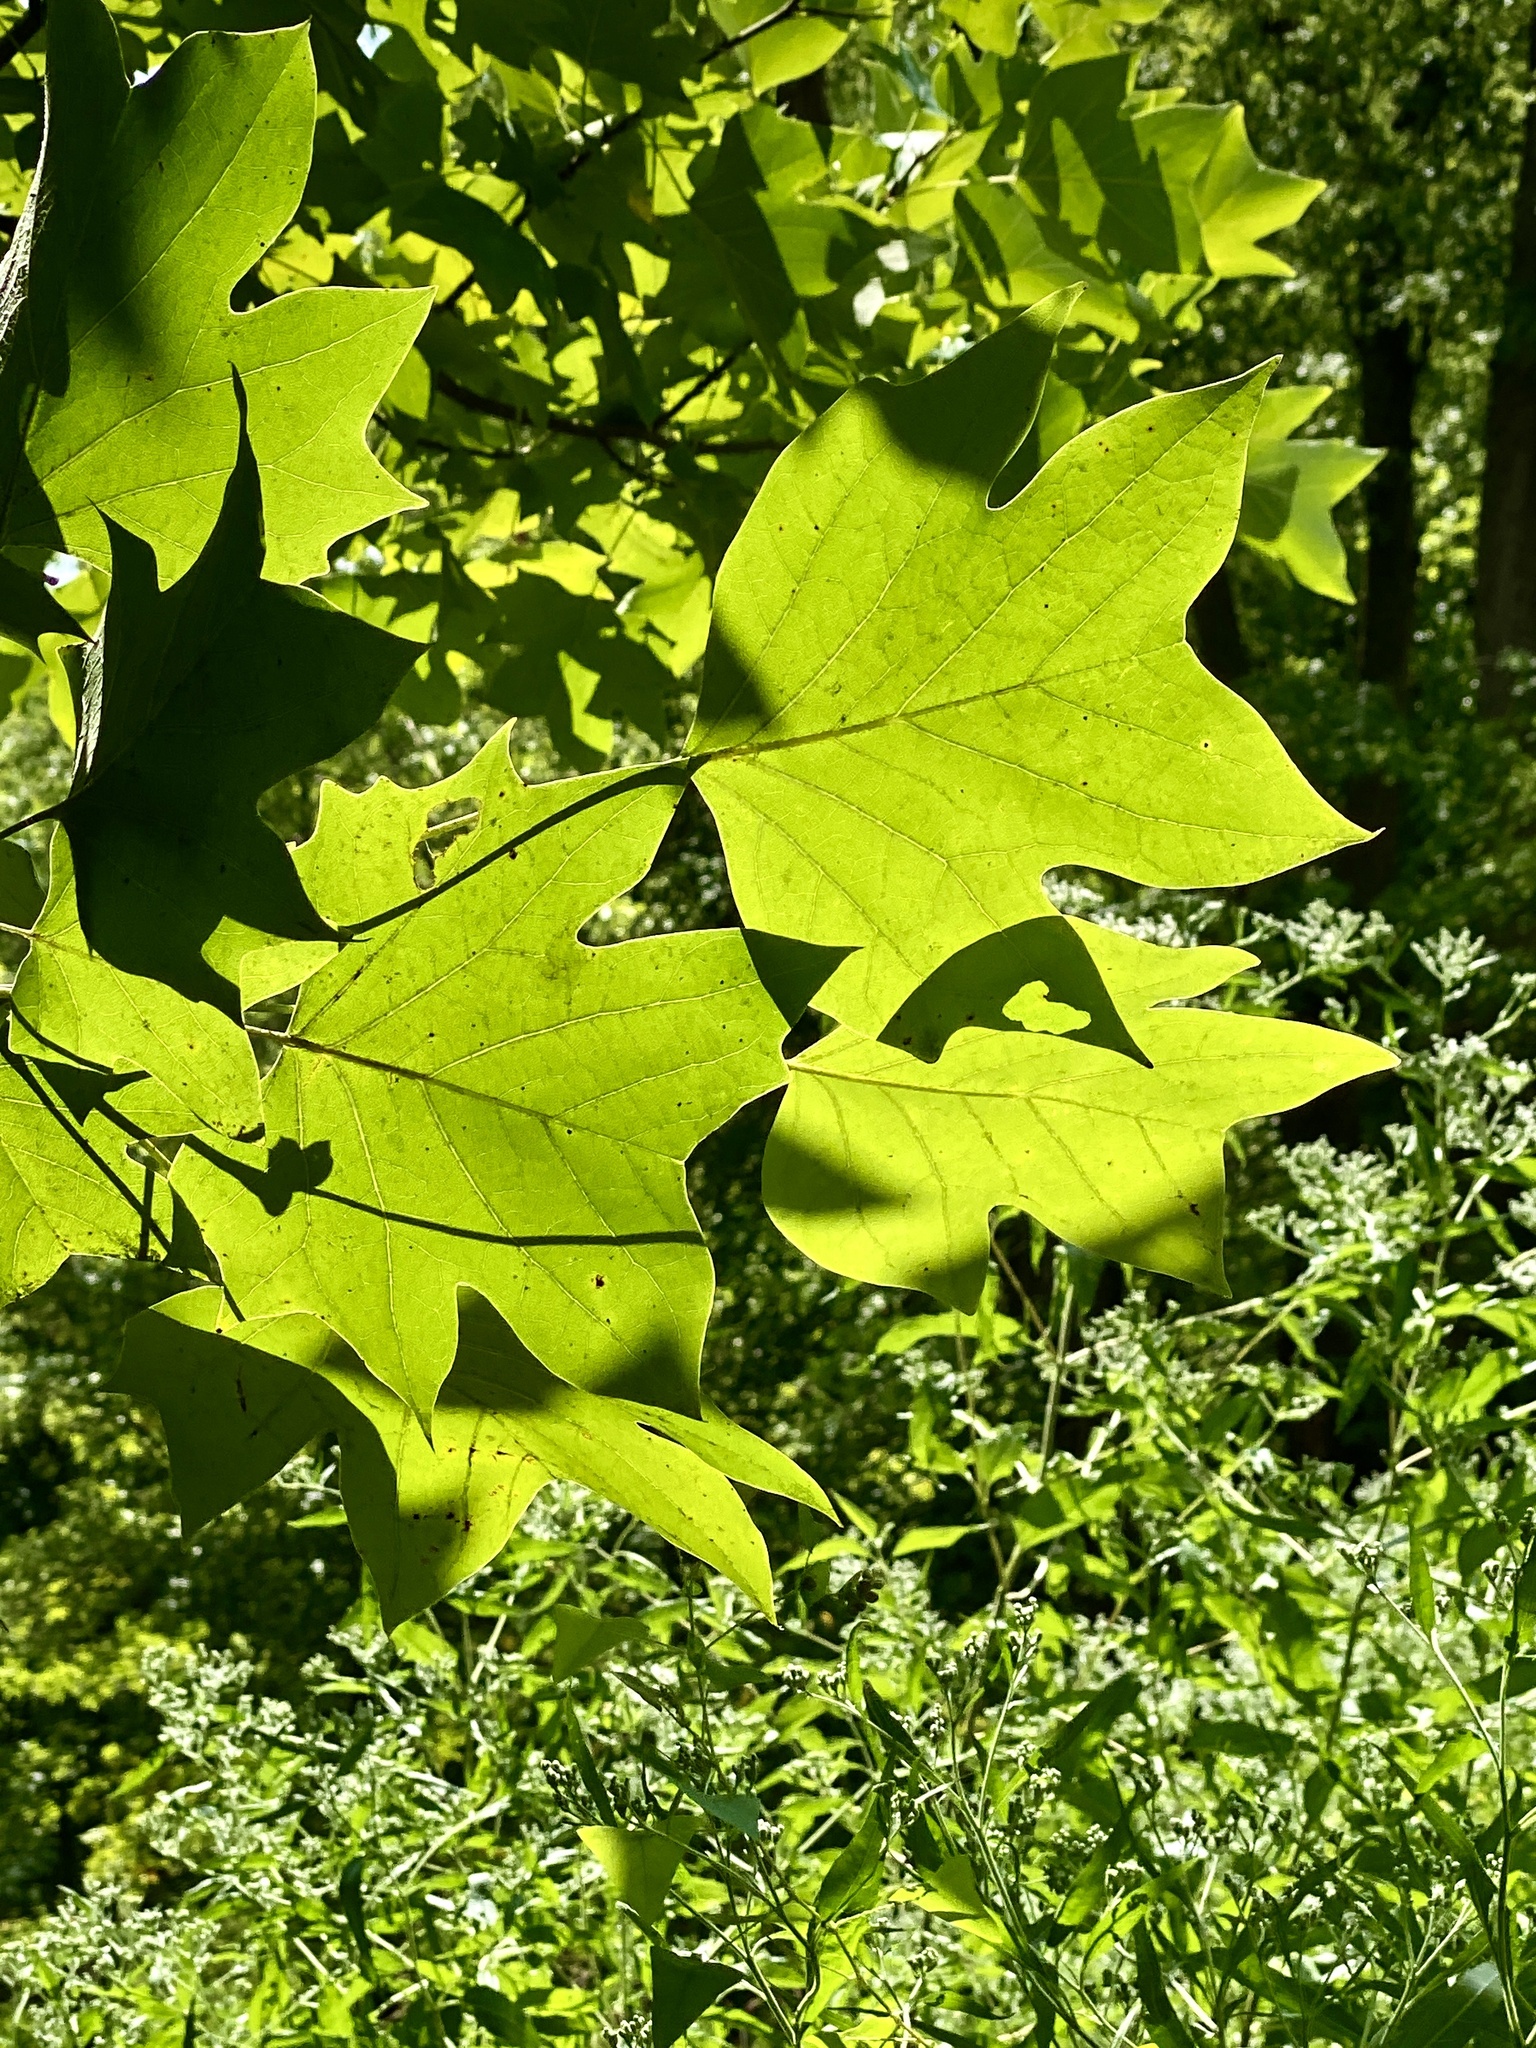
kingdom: Plantae
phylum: Tracheophyta
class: Magnoliopsida
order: Magnoliales
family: Magnoliaceae
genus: Liriodendron
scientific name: Liriodendron tulipifera
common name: Tulip tree
